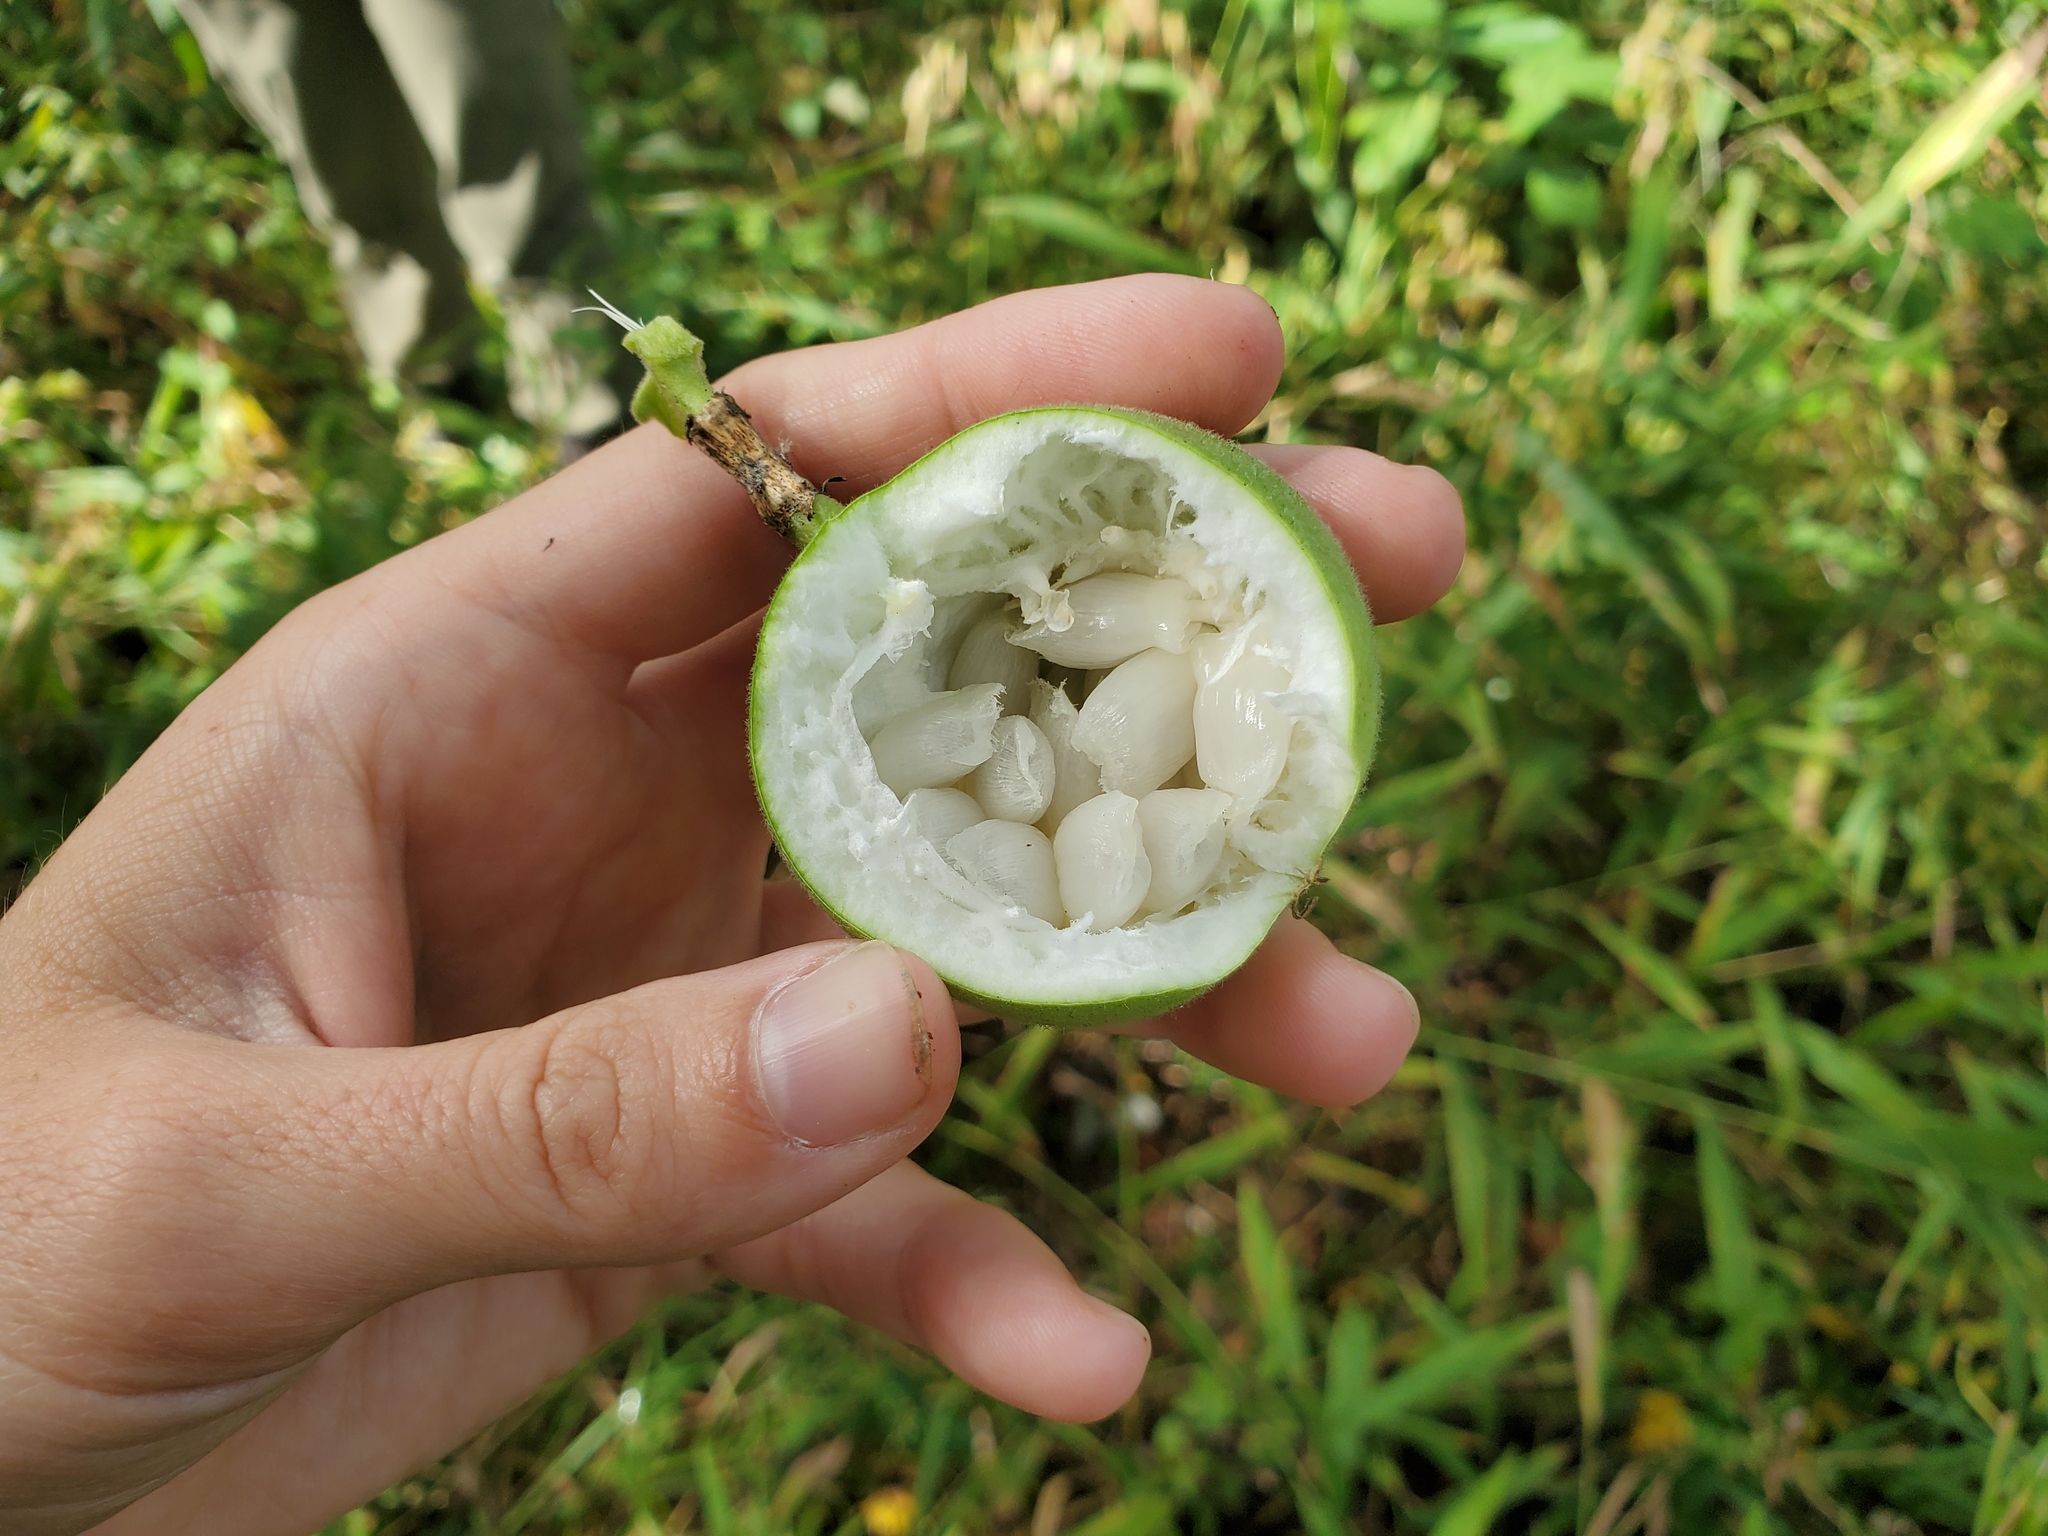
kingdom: Plantae
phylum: Tracheophyta
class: Magnoliopsida
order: Malpighiales
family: Passifloraceae
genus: Passiflora
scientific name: Passiflora incarnata
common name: Apricot-vine
